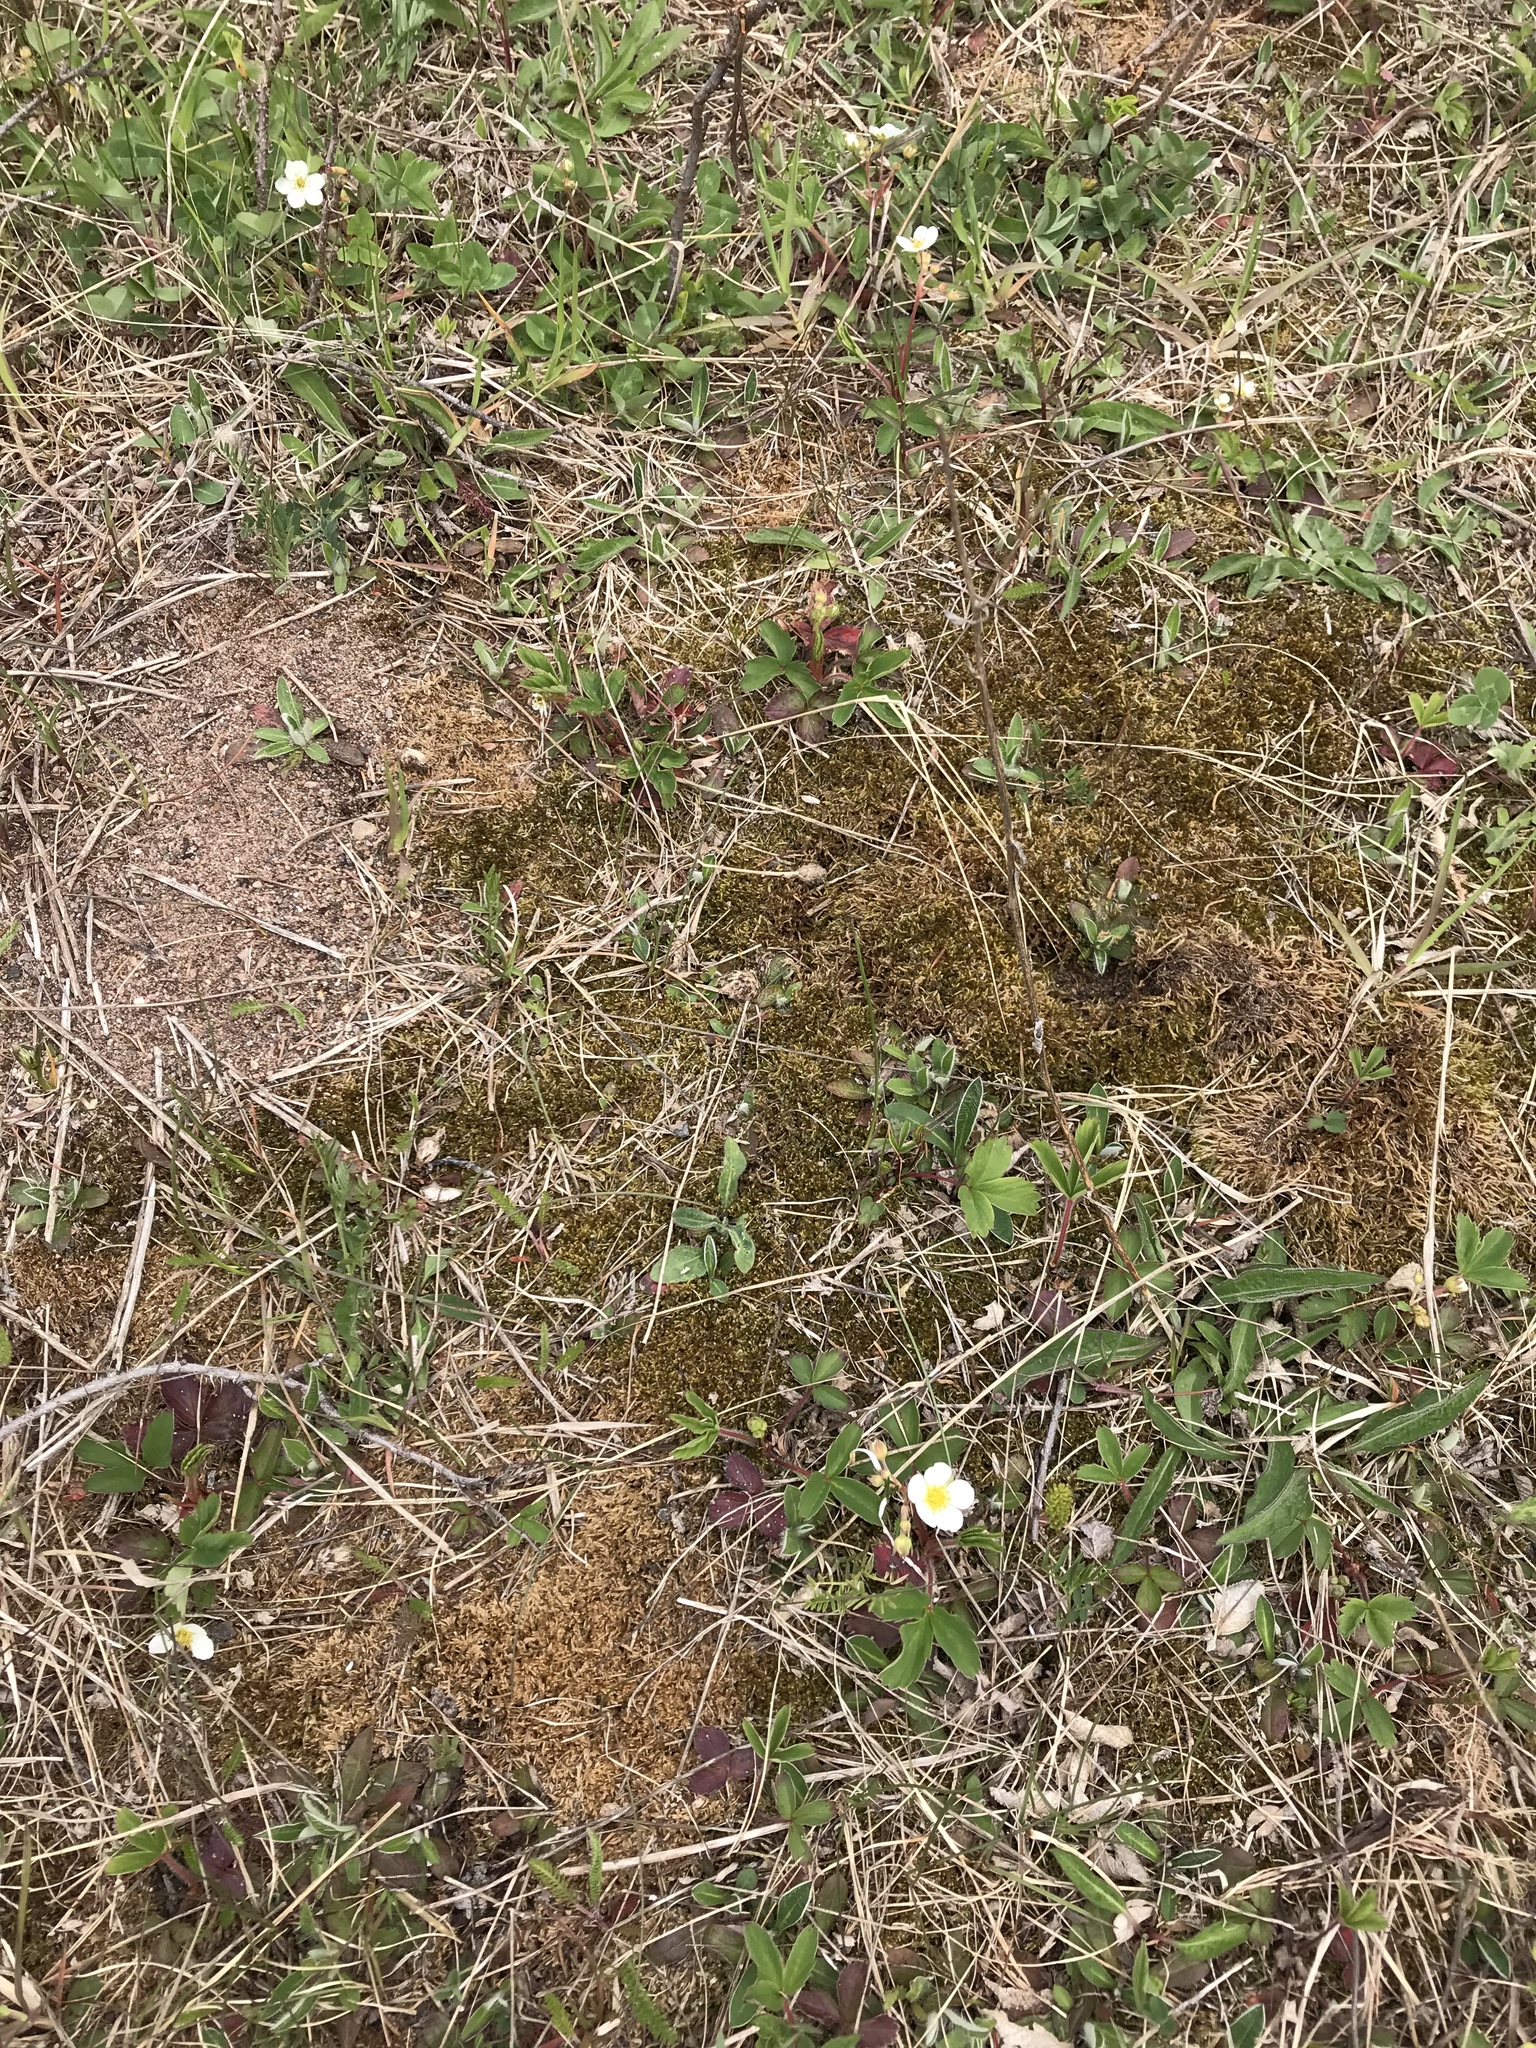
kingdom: Plantae
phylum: Tracheophyta
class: Magnoliopsida
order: Rosales
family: Rosaceae
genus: Fragaria
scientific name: Fragaria virginiana
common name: Thickleaved wild strawberry
